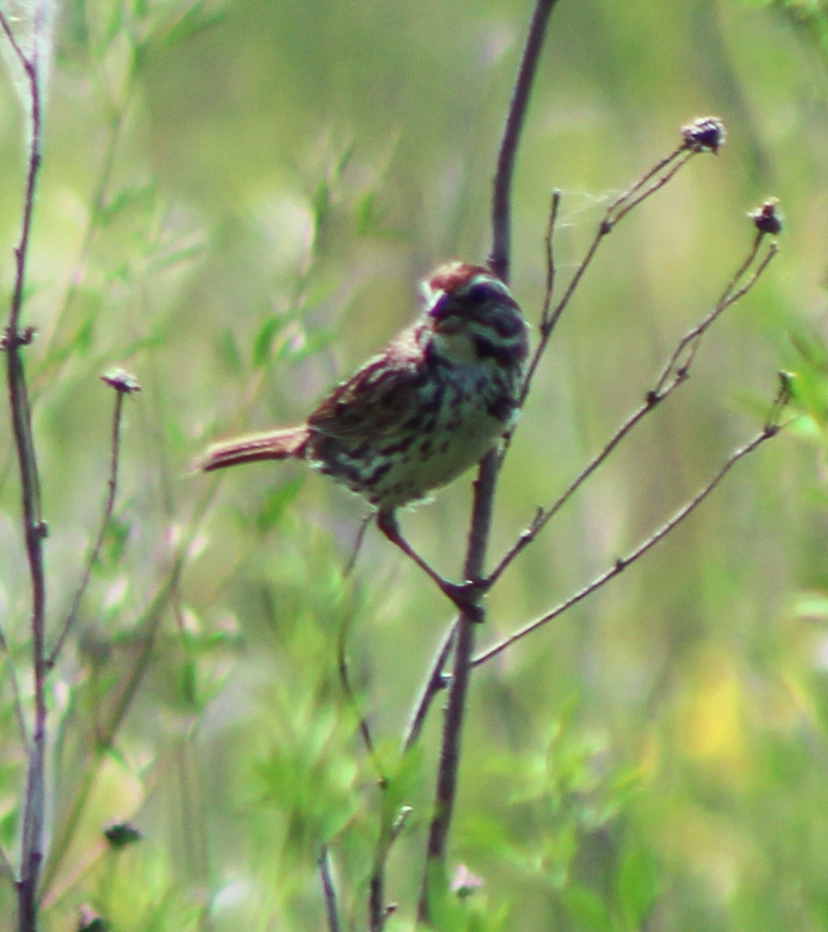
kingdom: Animalia
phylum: Chordata
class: Aves
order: Passeriformes
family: Passerellidae
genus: Melospiza
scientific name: Melospiza melodia
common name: Song sparrow
